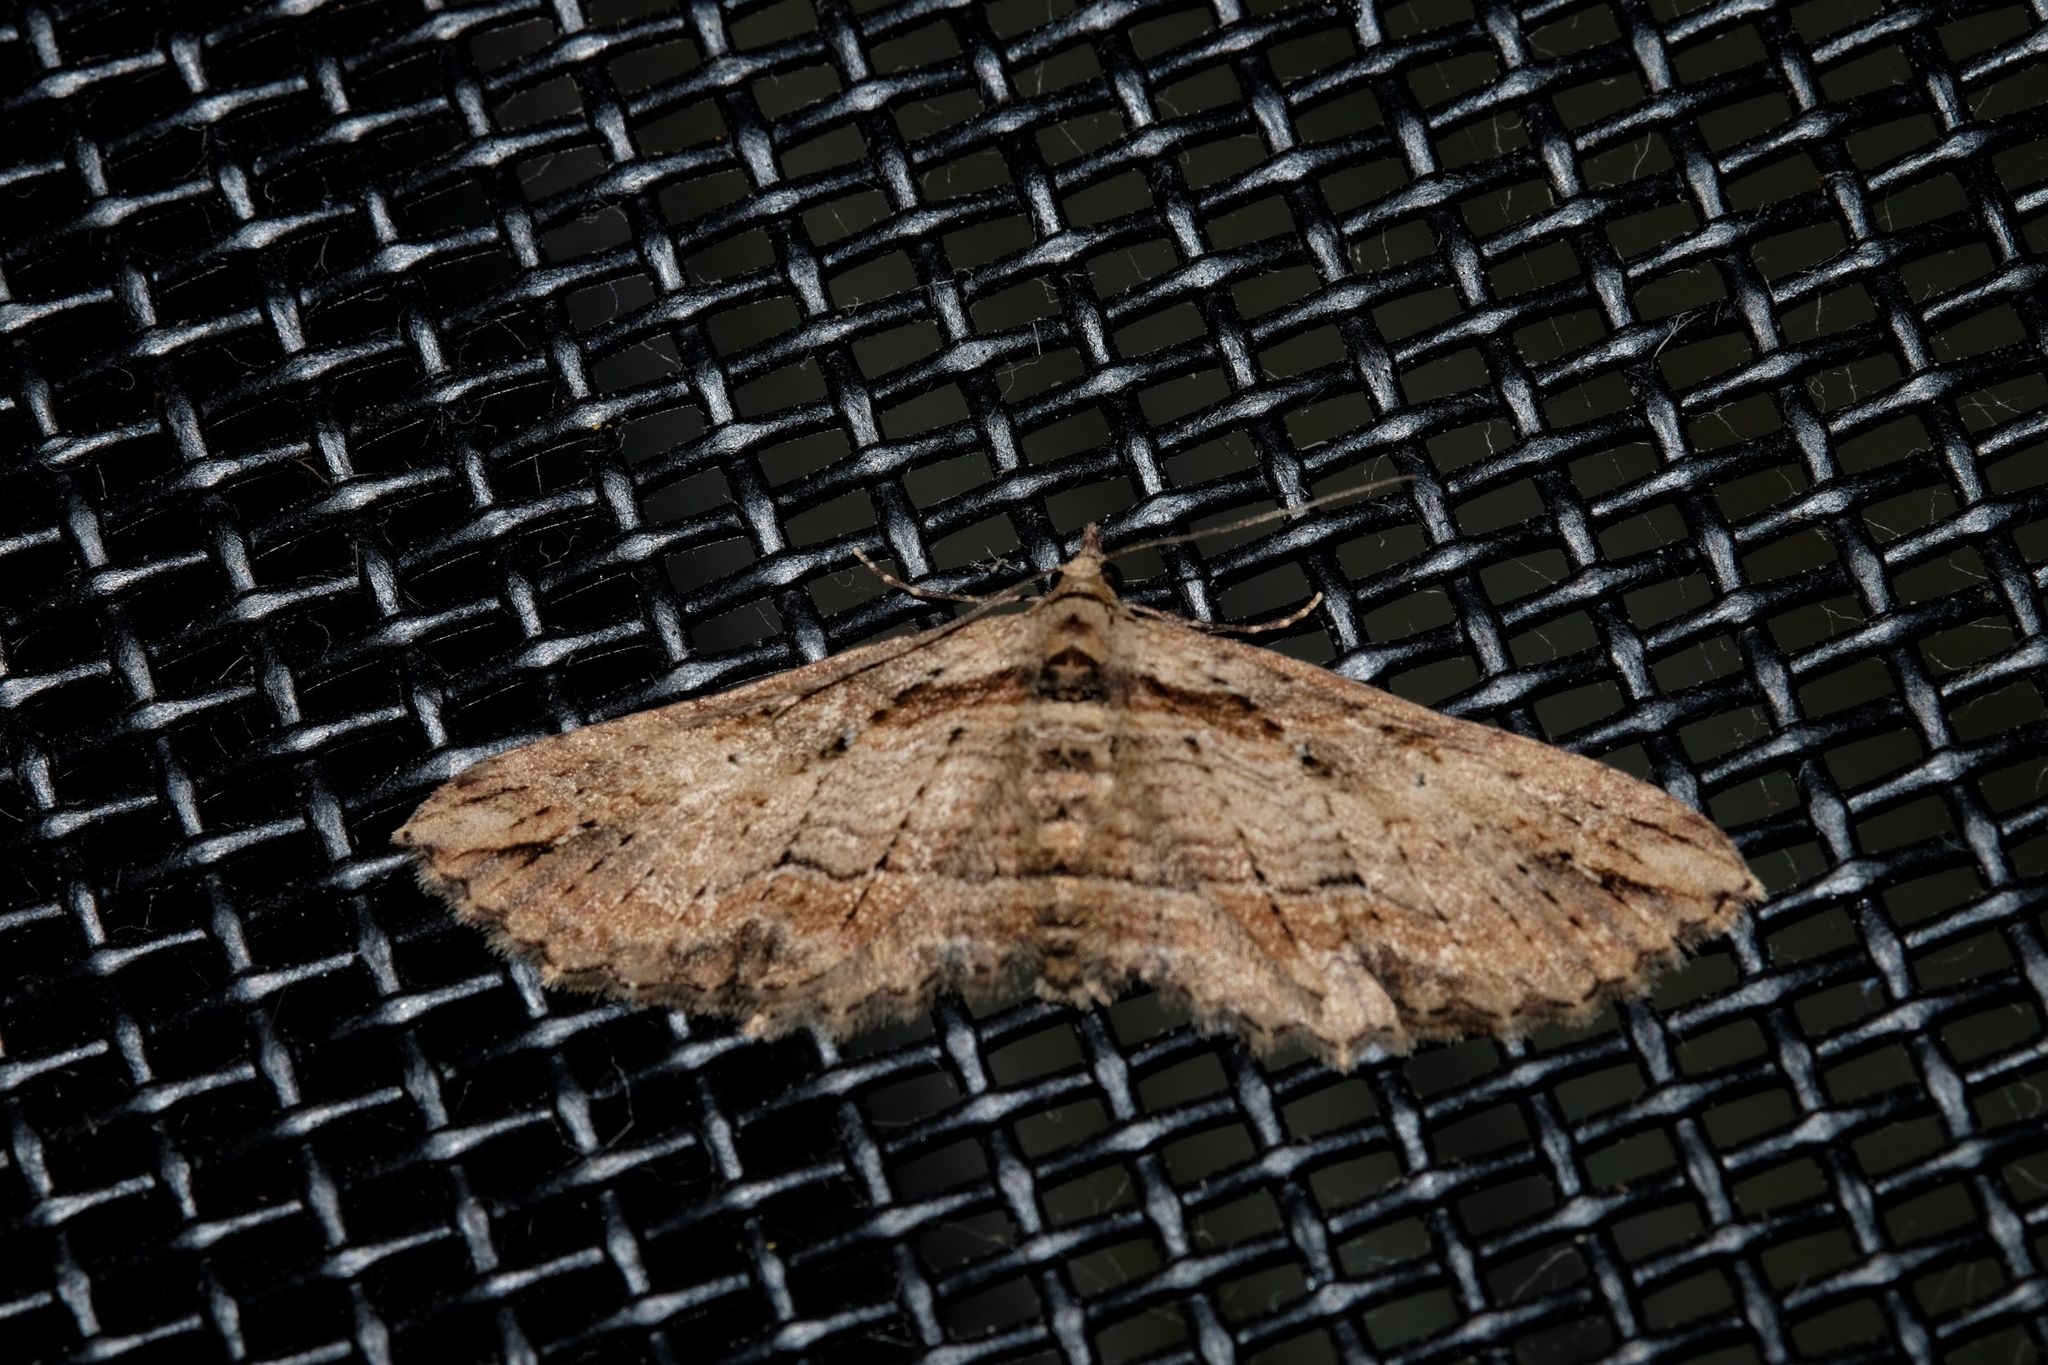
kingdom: Animalia
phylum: Arthropoda
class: Insecta
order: Lepidoptera
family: Geometridae
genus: Chrysolarentia
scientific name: Chrysolarentia leucophanes
